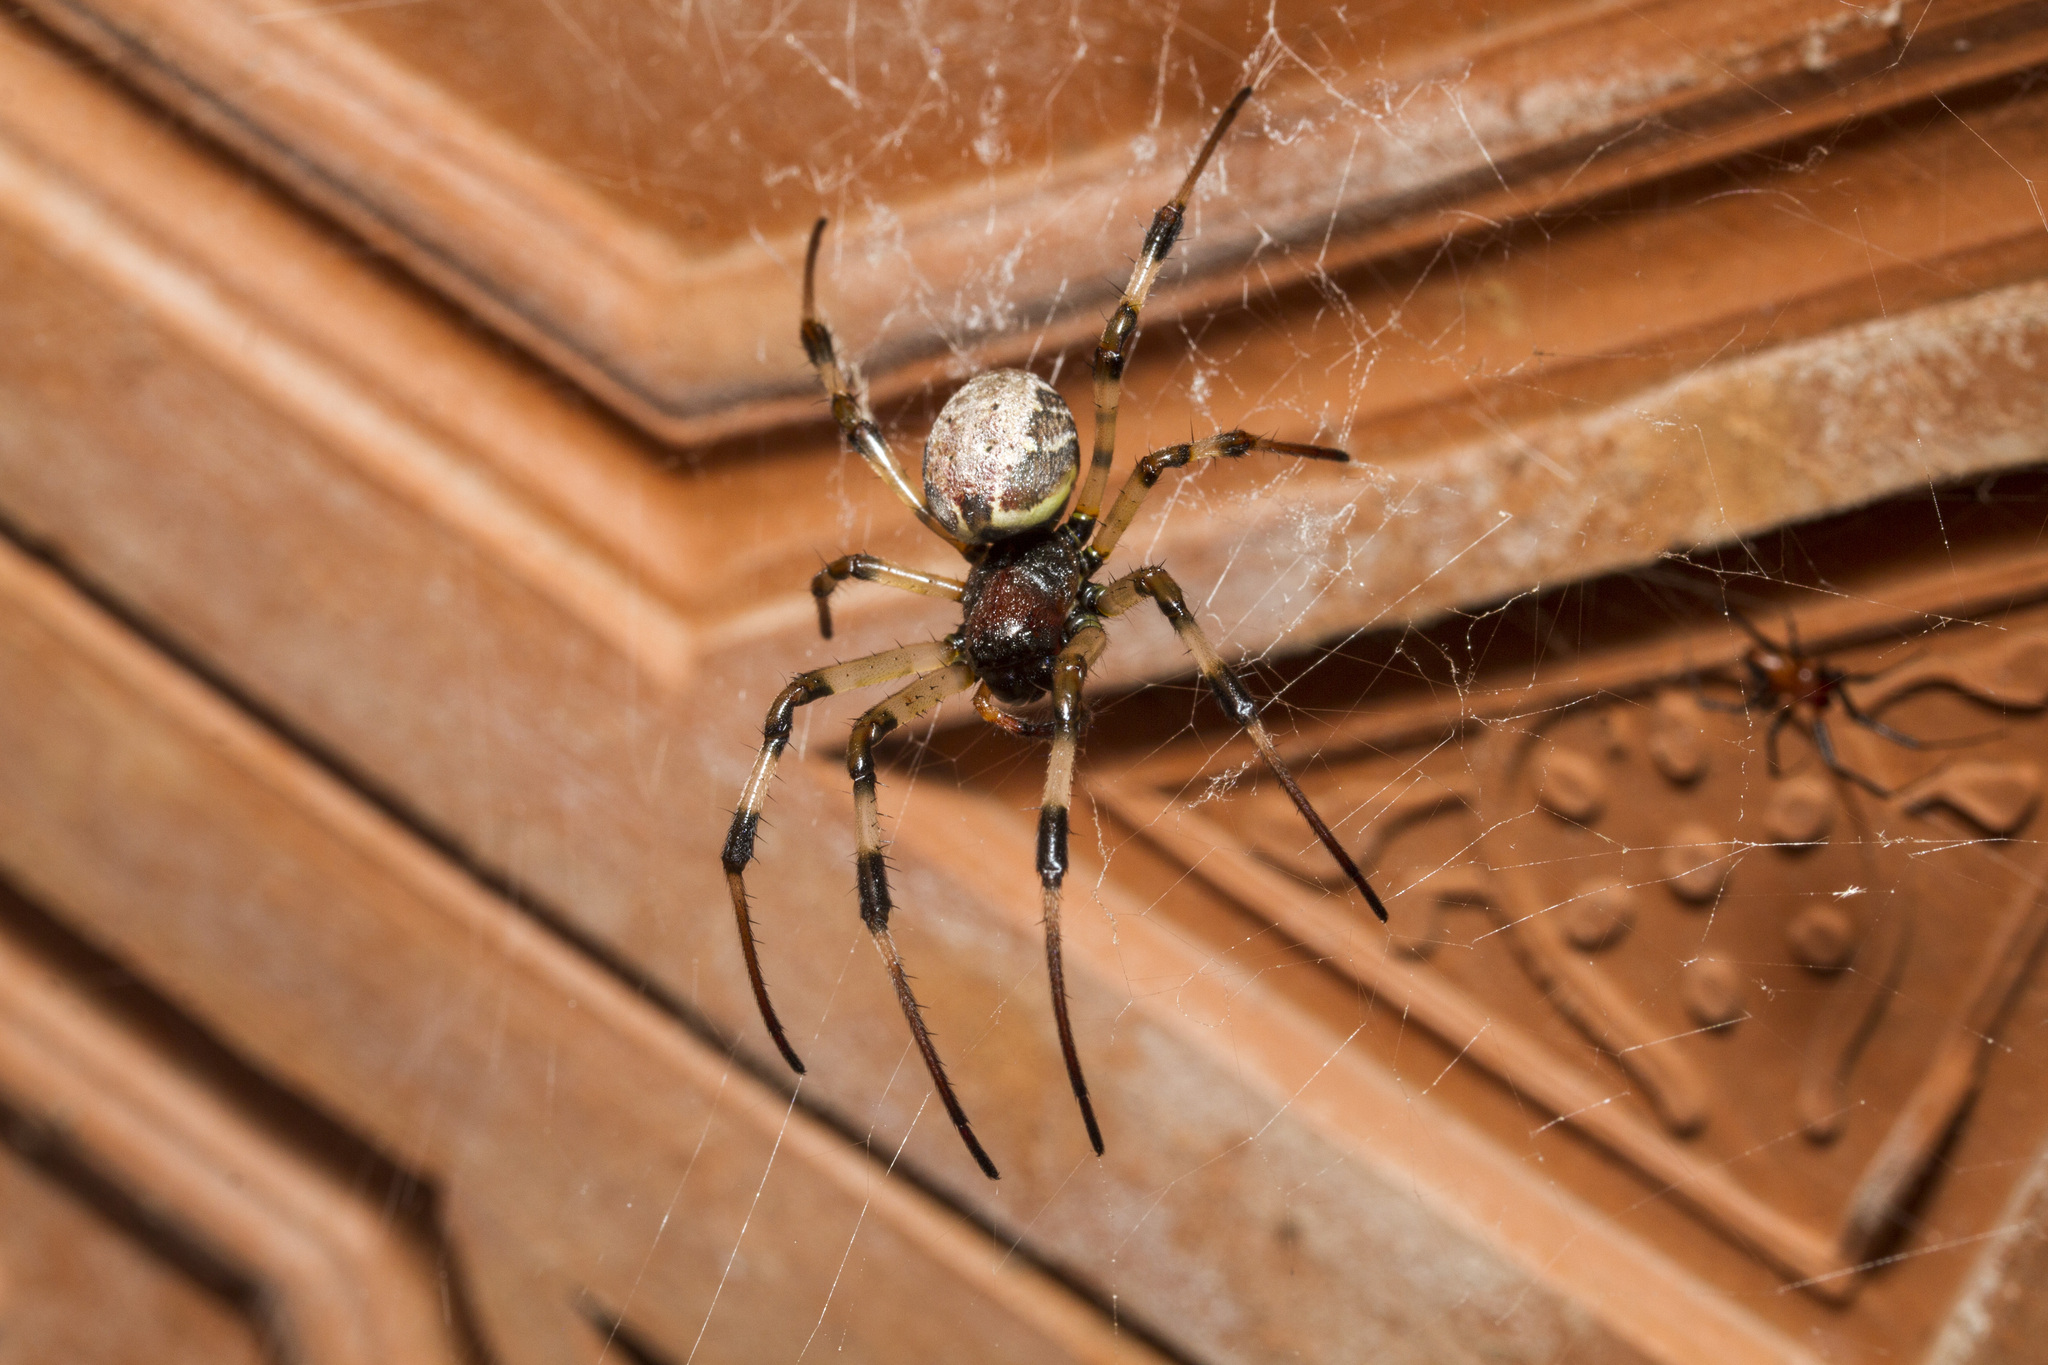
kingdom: Animalia
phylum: Arthropoda
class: Arachnida
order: Araneae
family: Araneidae
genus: Nephilengys
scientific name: Nephilengys malabarensis
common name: Asian hermit spider
